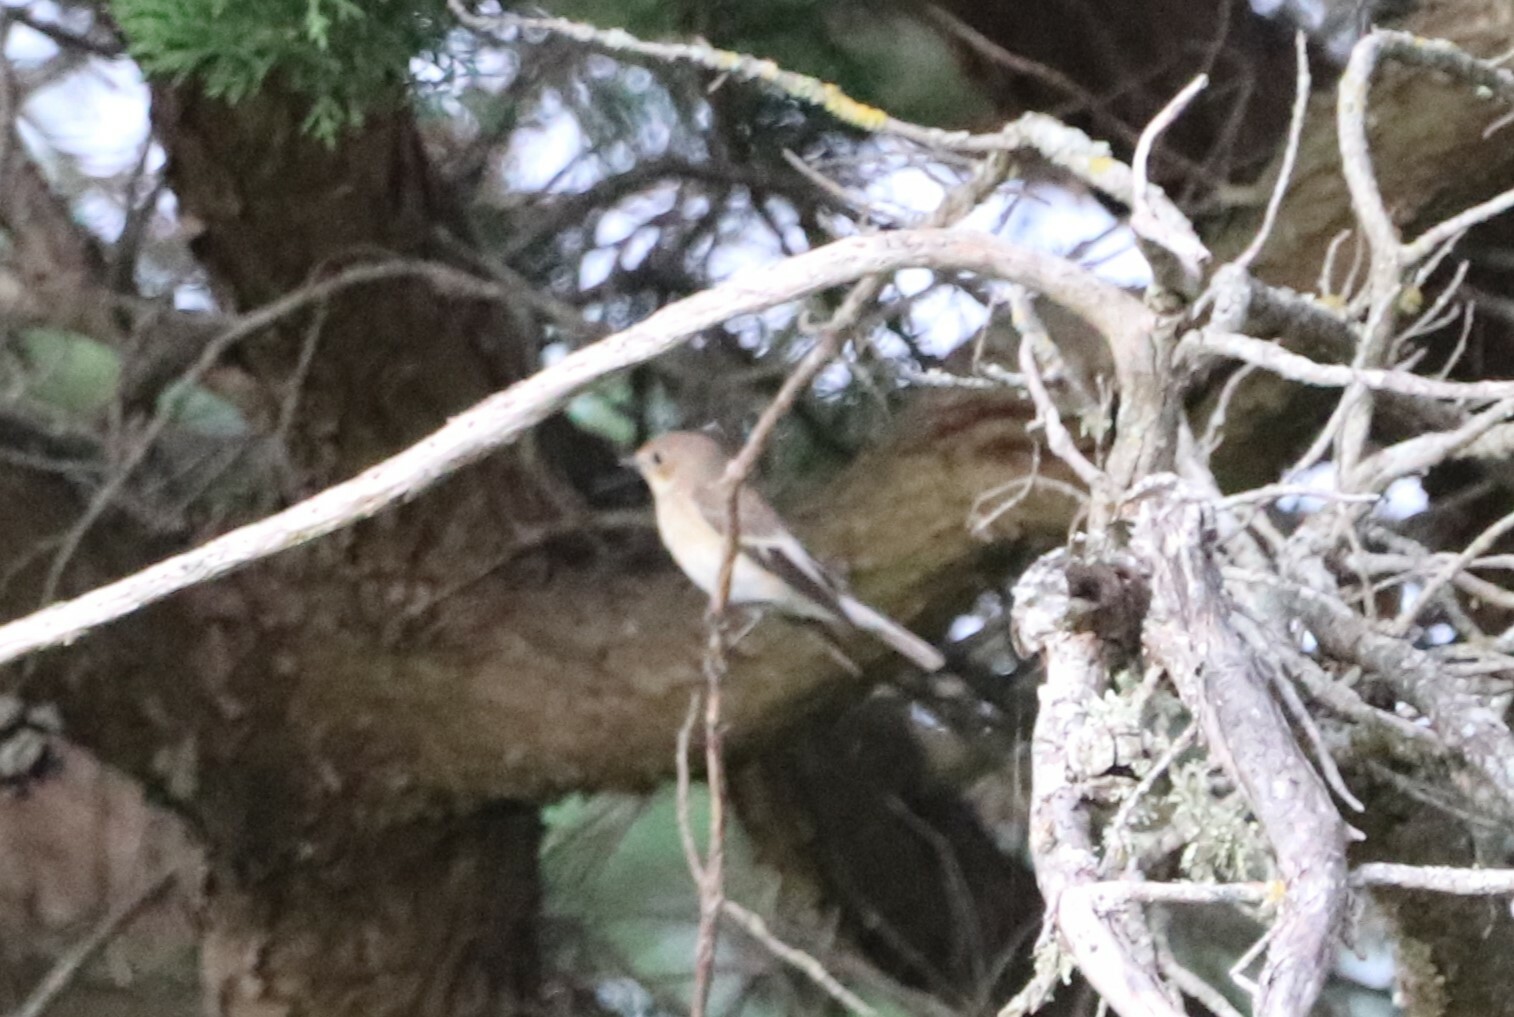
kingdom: Animalia
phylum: Chordata
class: Aves
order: Passeriformes
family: Muscicapidae
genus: Ficedula
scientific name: Ficedula hypoleuca
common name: European pied flycatcher
